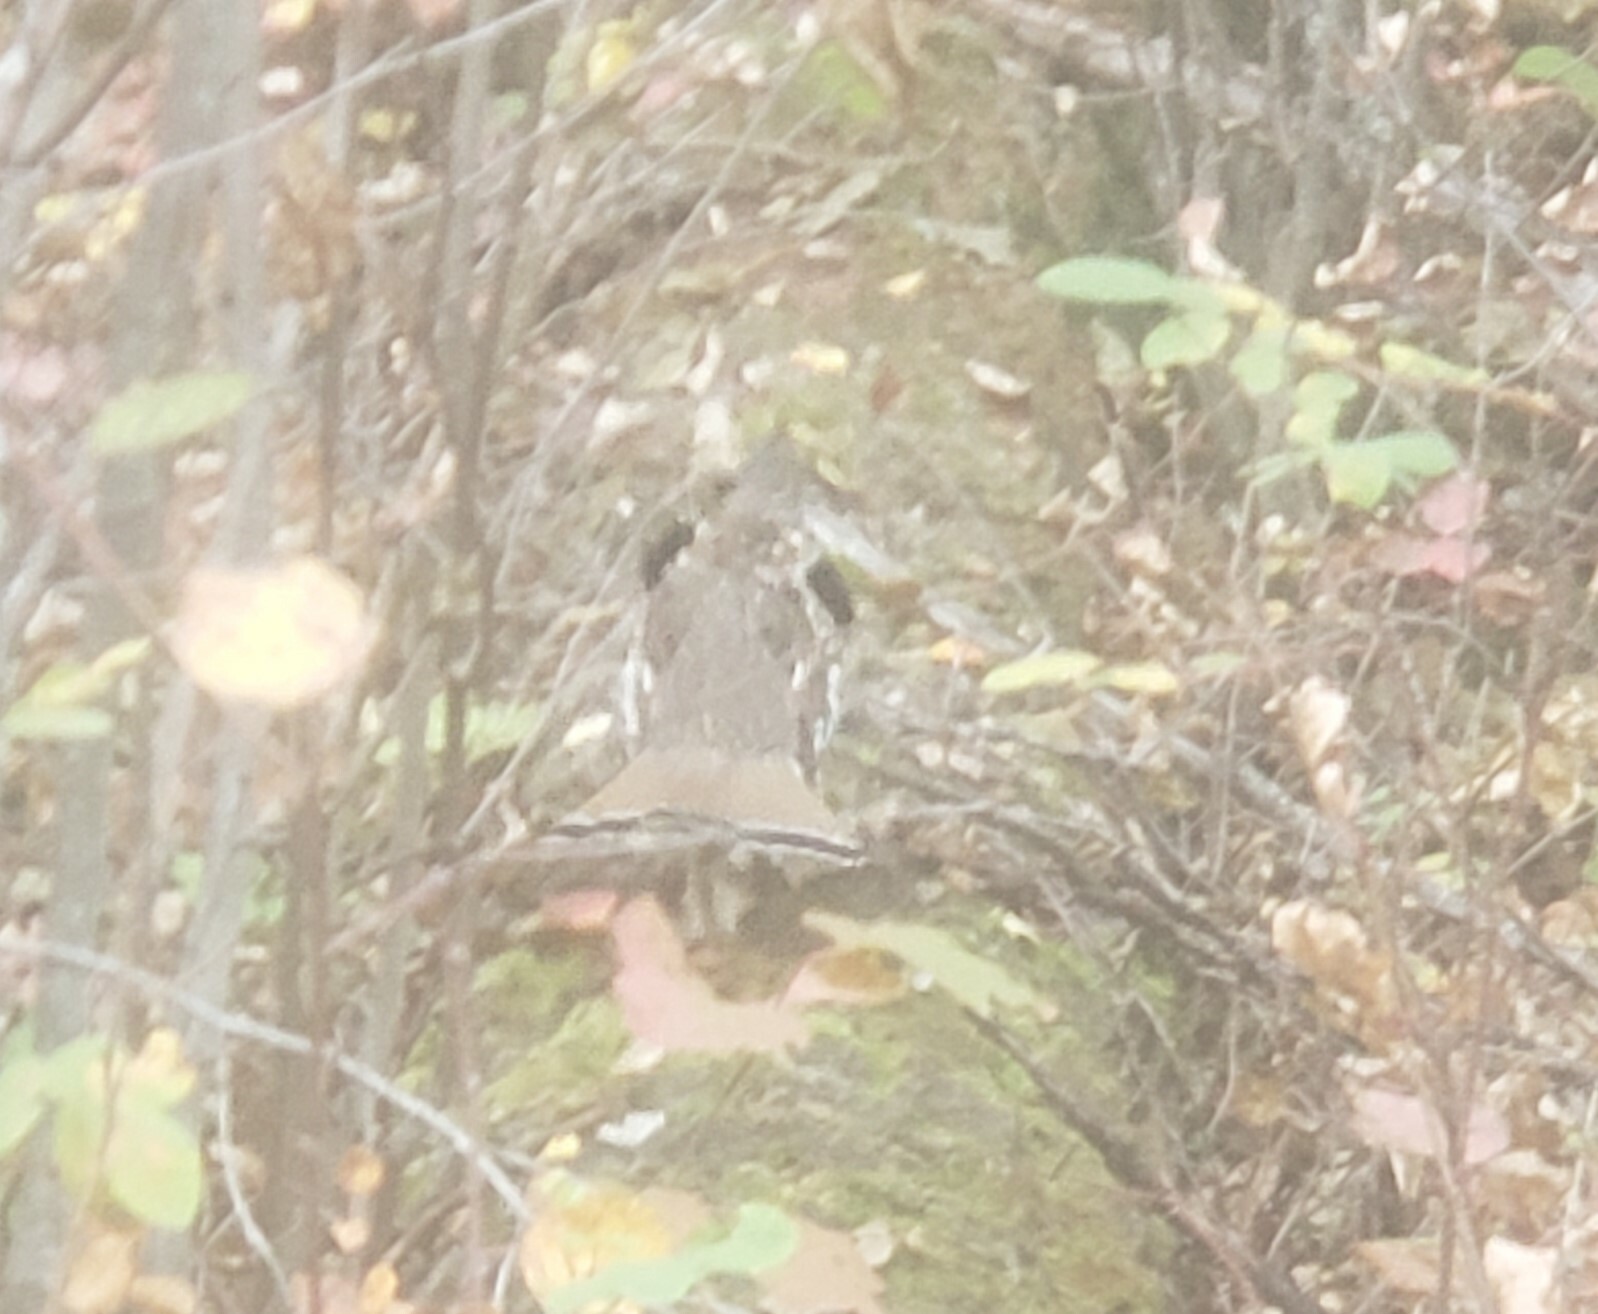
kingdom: Animalia
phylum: Chordata
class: Aves
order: Galliformes
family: Phasianidae
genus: Bonasa
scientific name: Bonasa umbellus
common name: Ruffed grouse
